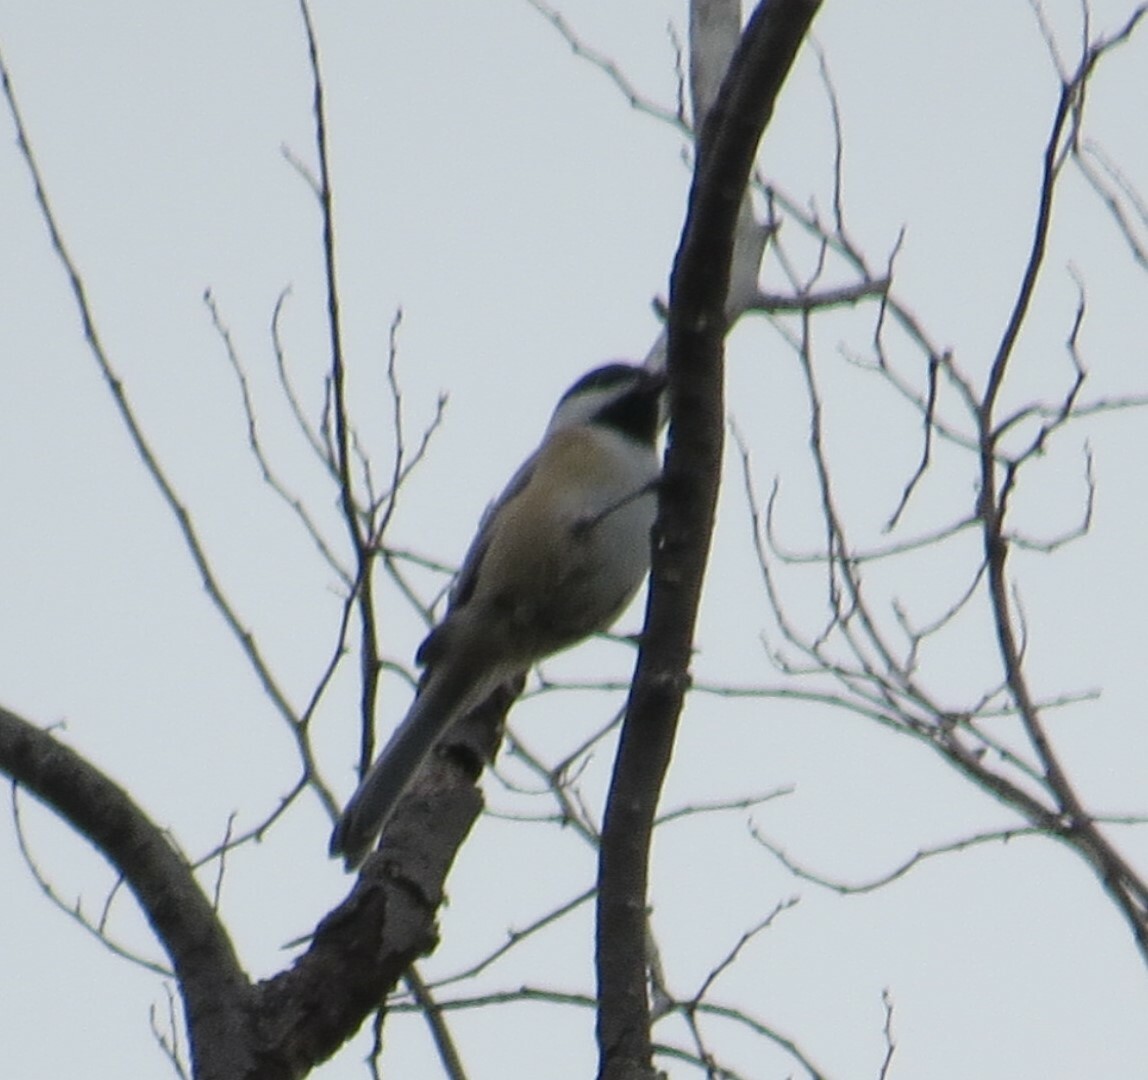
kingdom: Animalia
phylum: Chordata
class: Aves
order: Passeriformes
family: Paridae
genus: Poecile
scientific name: Poecile atricapillus
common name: Black-capped chickadee
